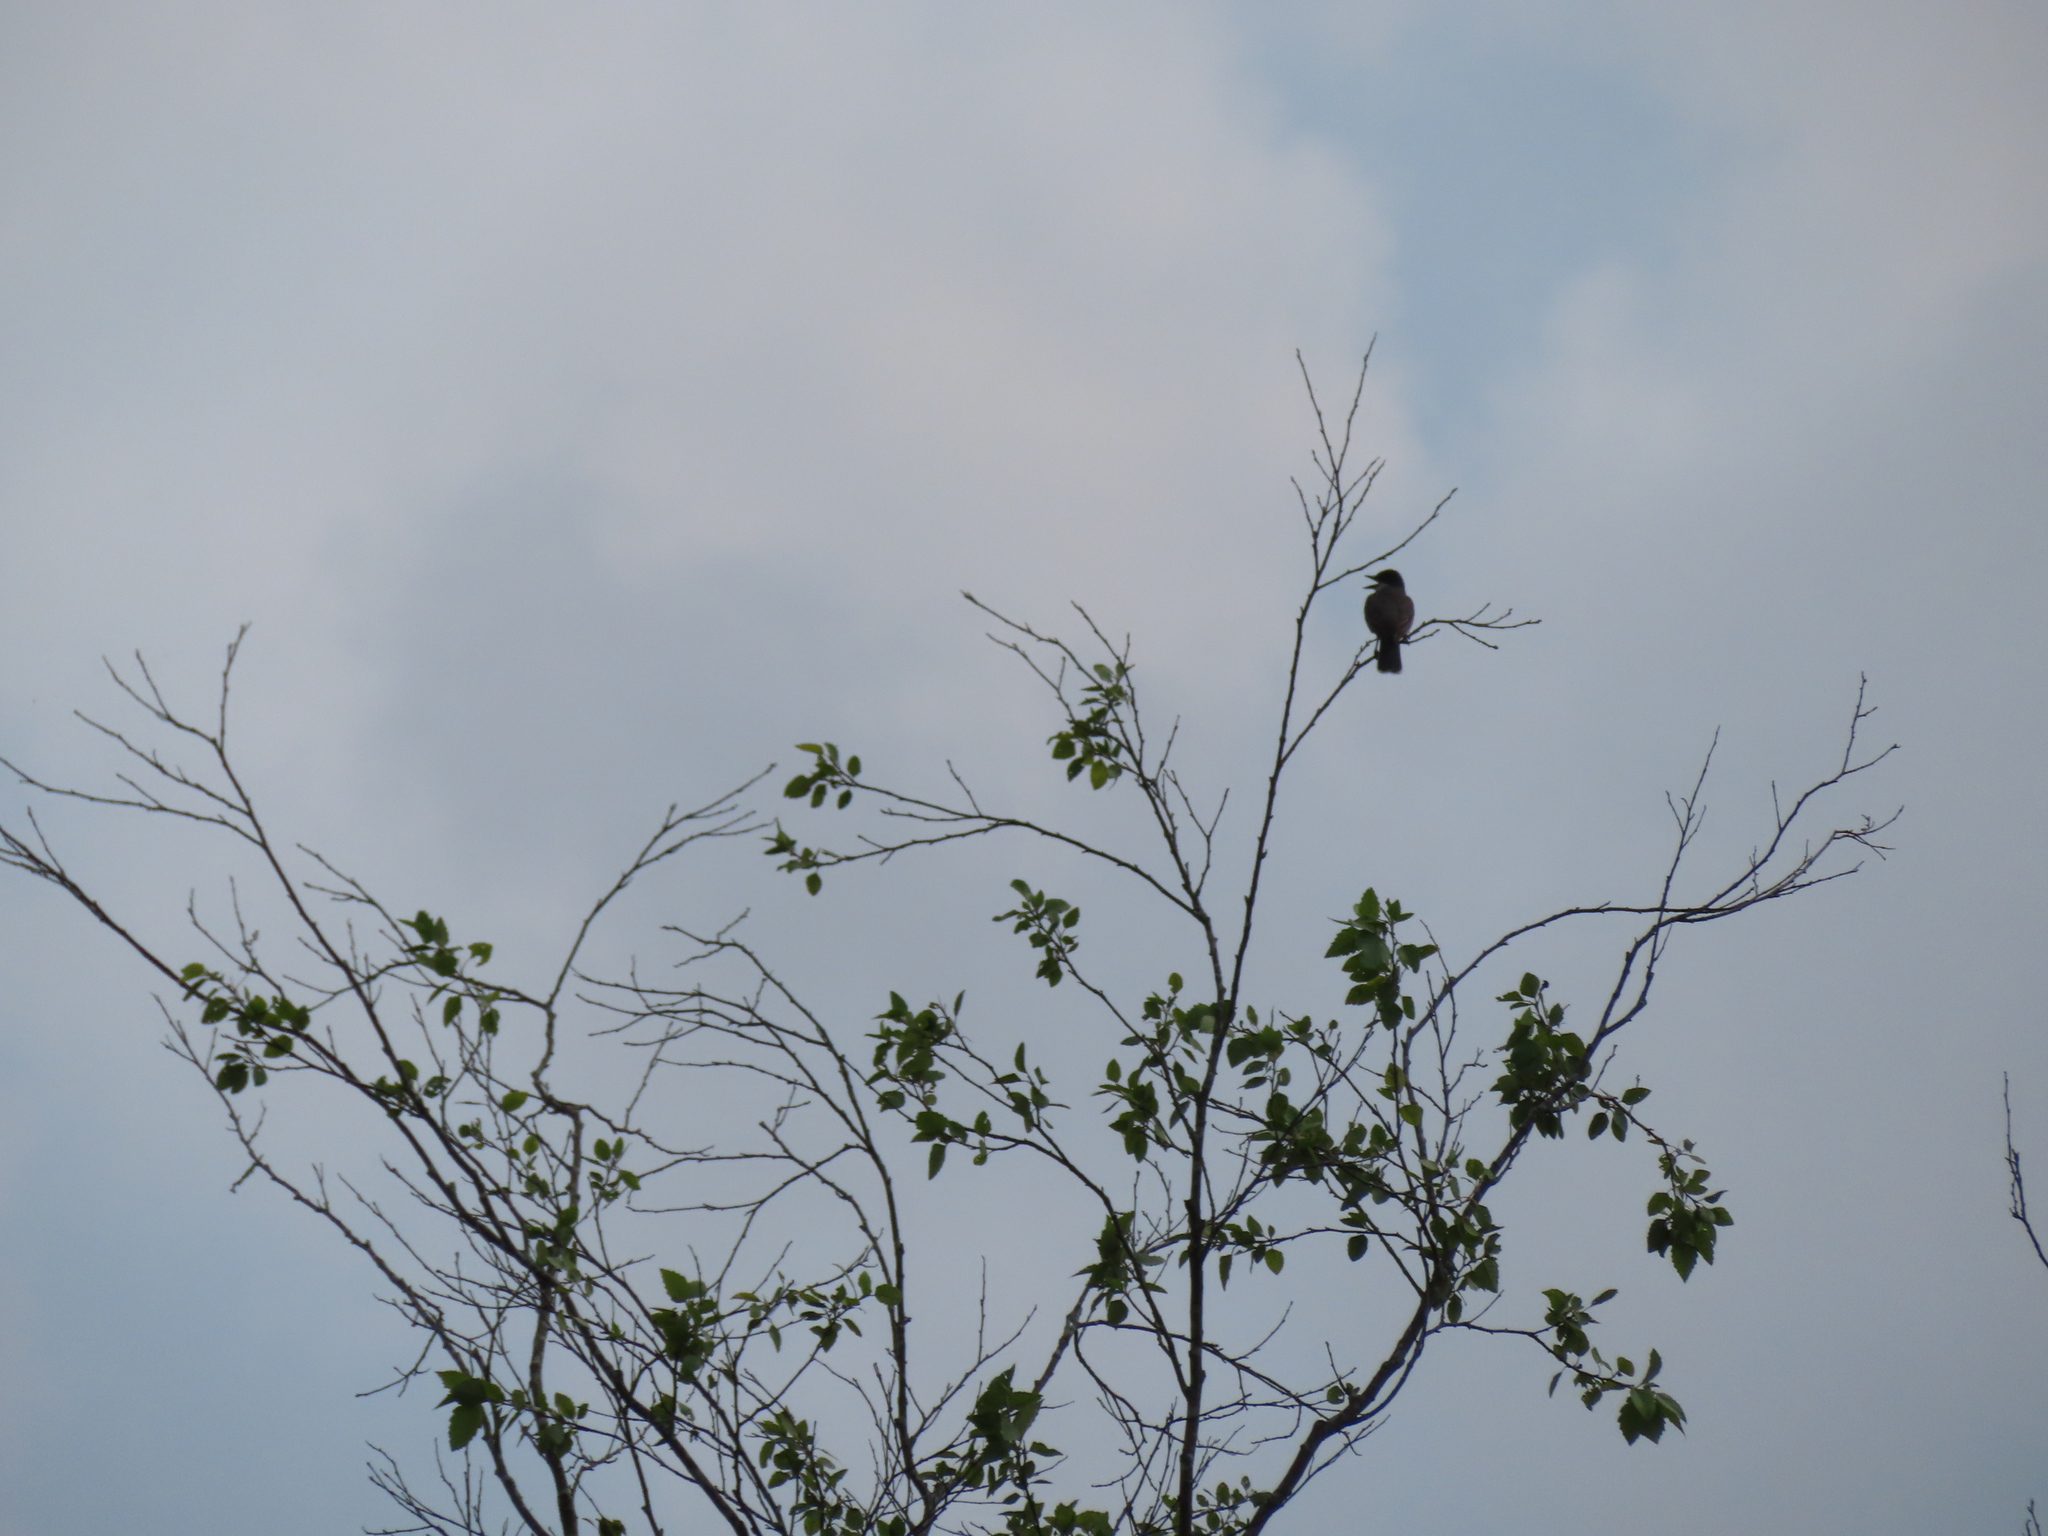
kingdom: Animalia
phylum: Chordata
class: Aves
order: Passeriformes
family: Tyrannidae
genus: Tyrannus
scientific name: Tyrannus tyrannus
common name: Eastern kingbird
